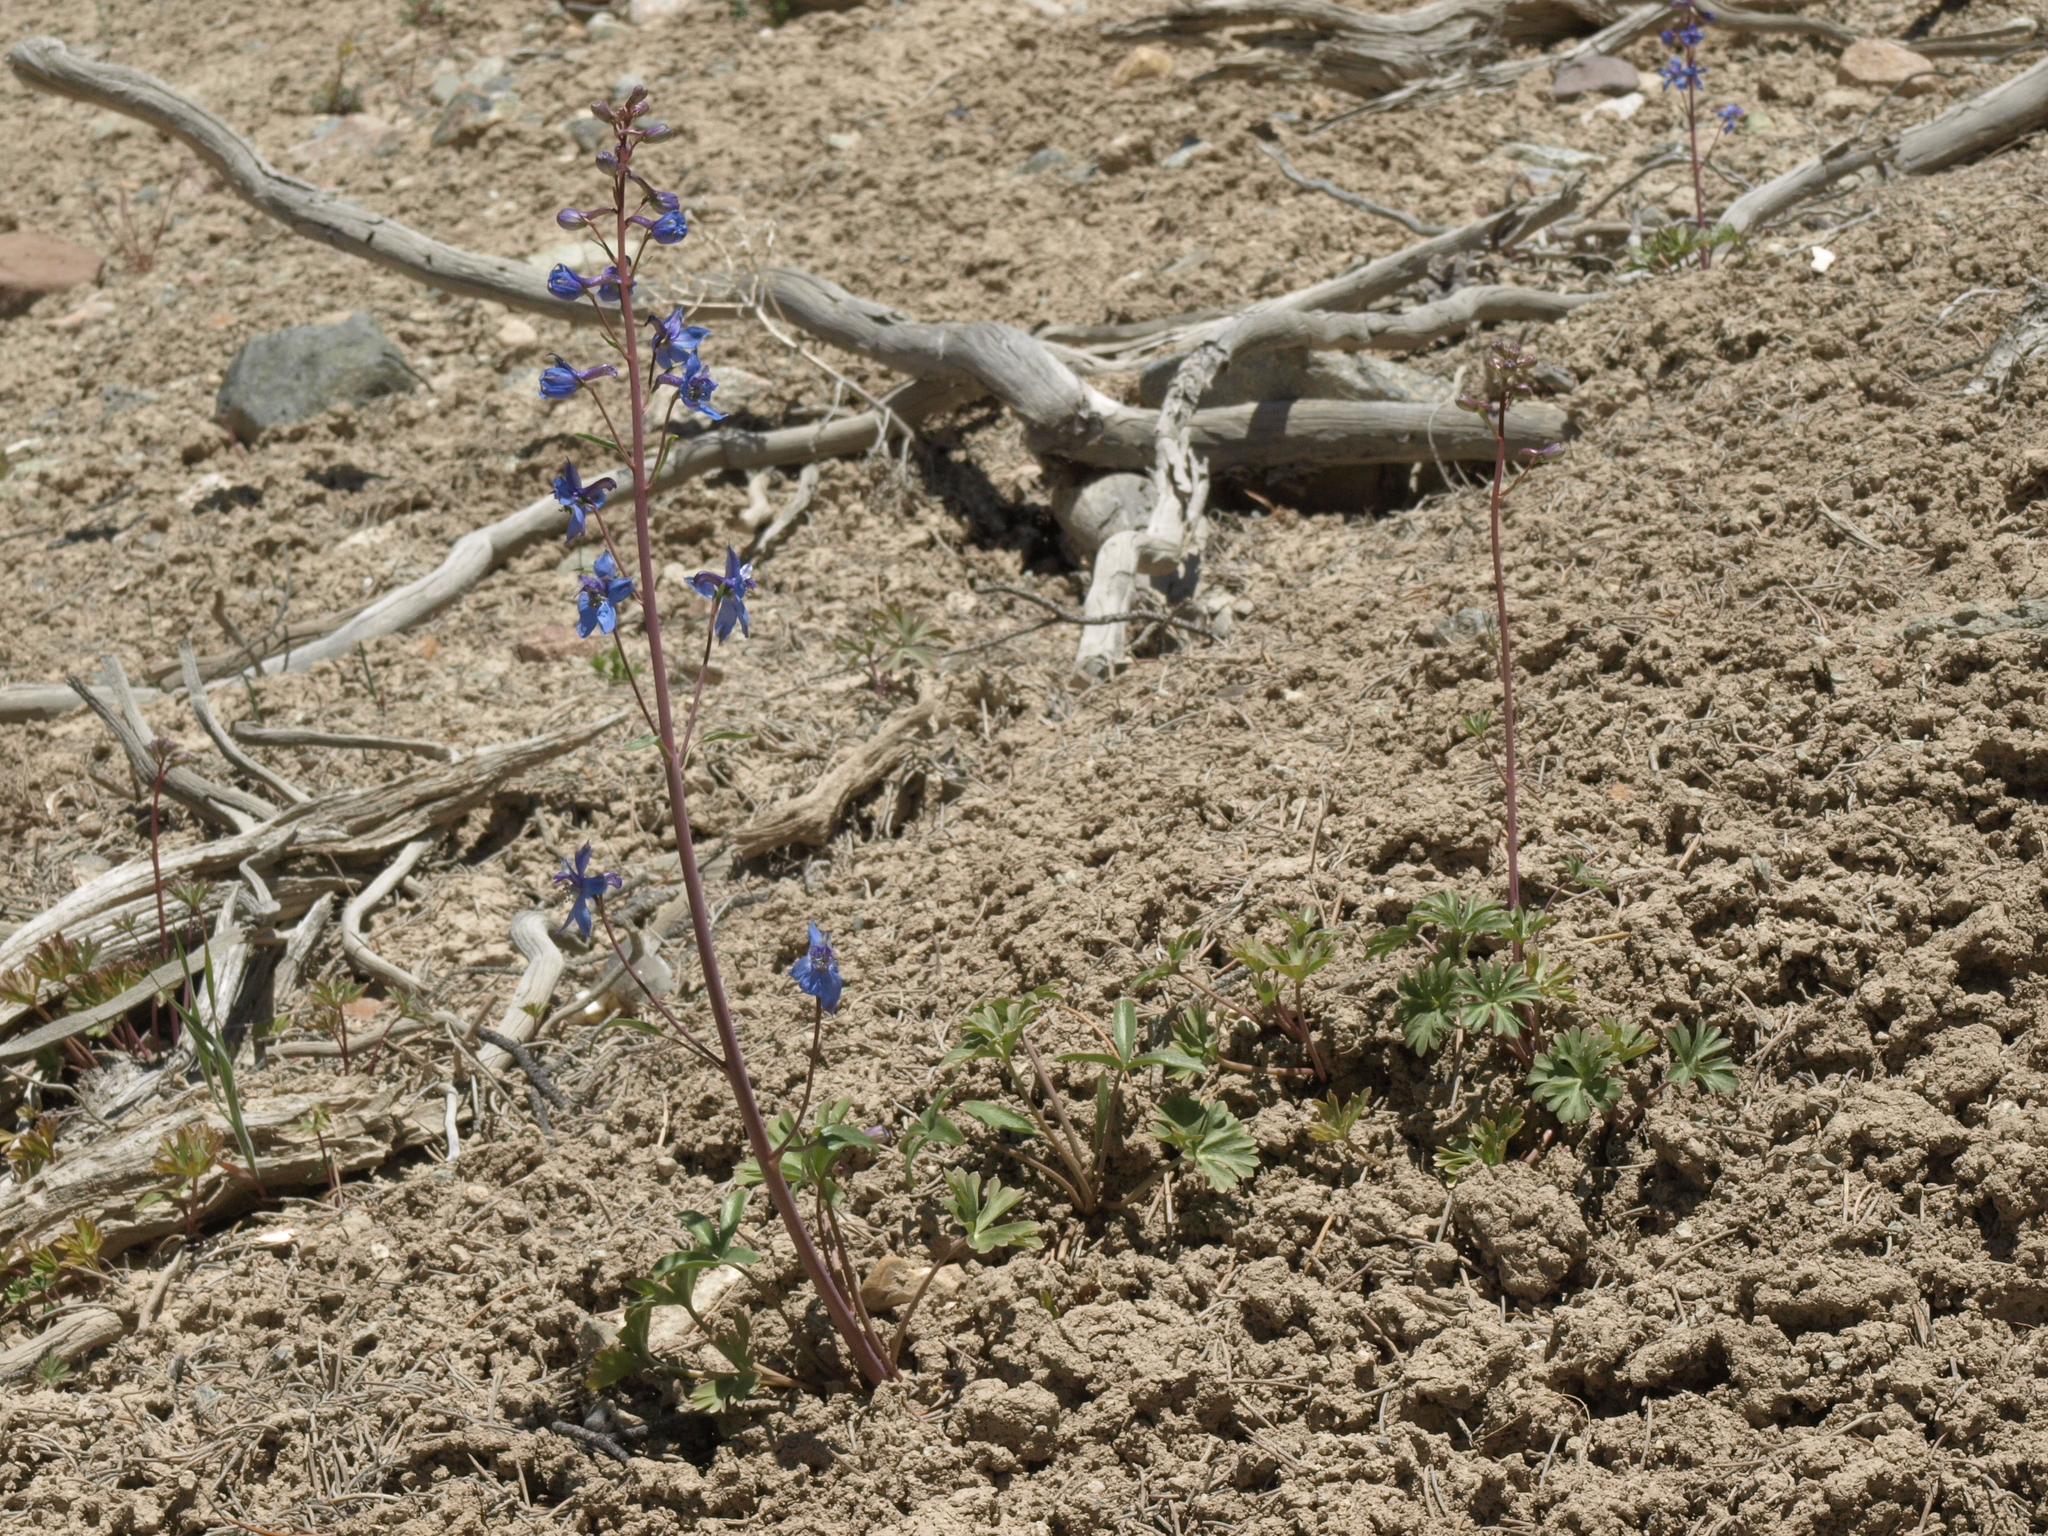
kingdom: Plantae
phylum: Tracheophyta
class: Magnoliopsida
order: Ranunculales
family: Ranunculaceae
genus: Delphinium
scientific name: Delphinium andersonii
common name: Anderson's larkspur
